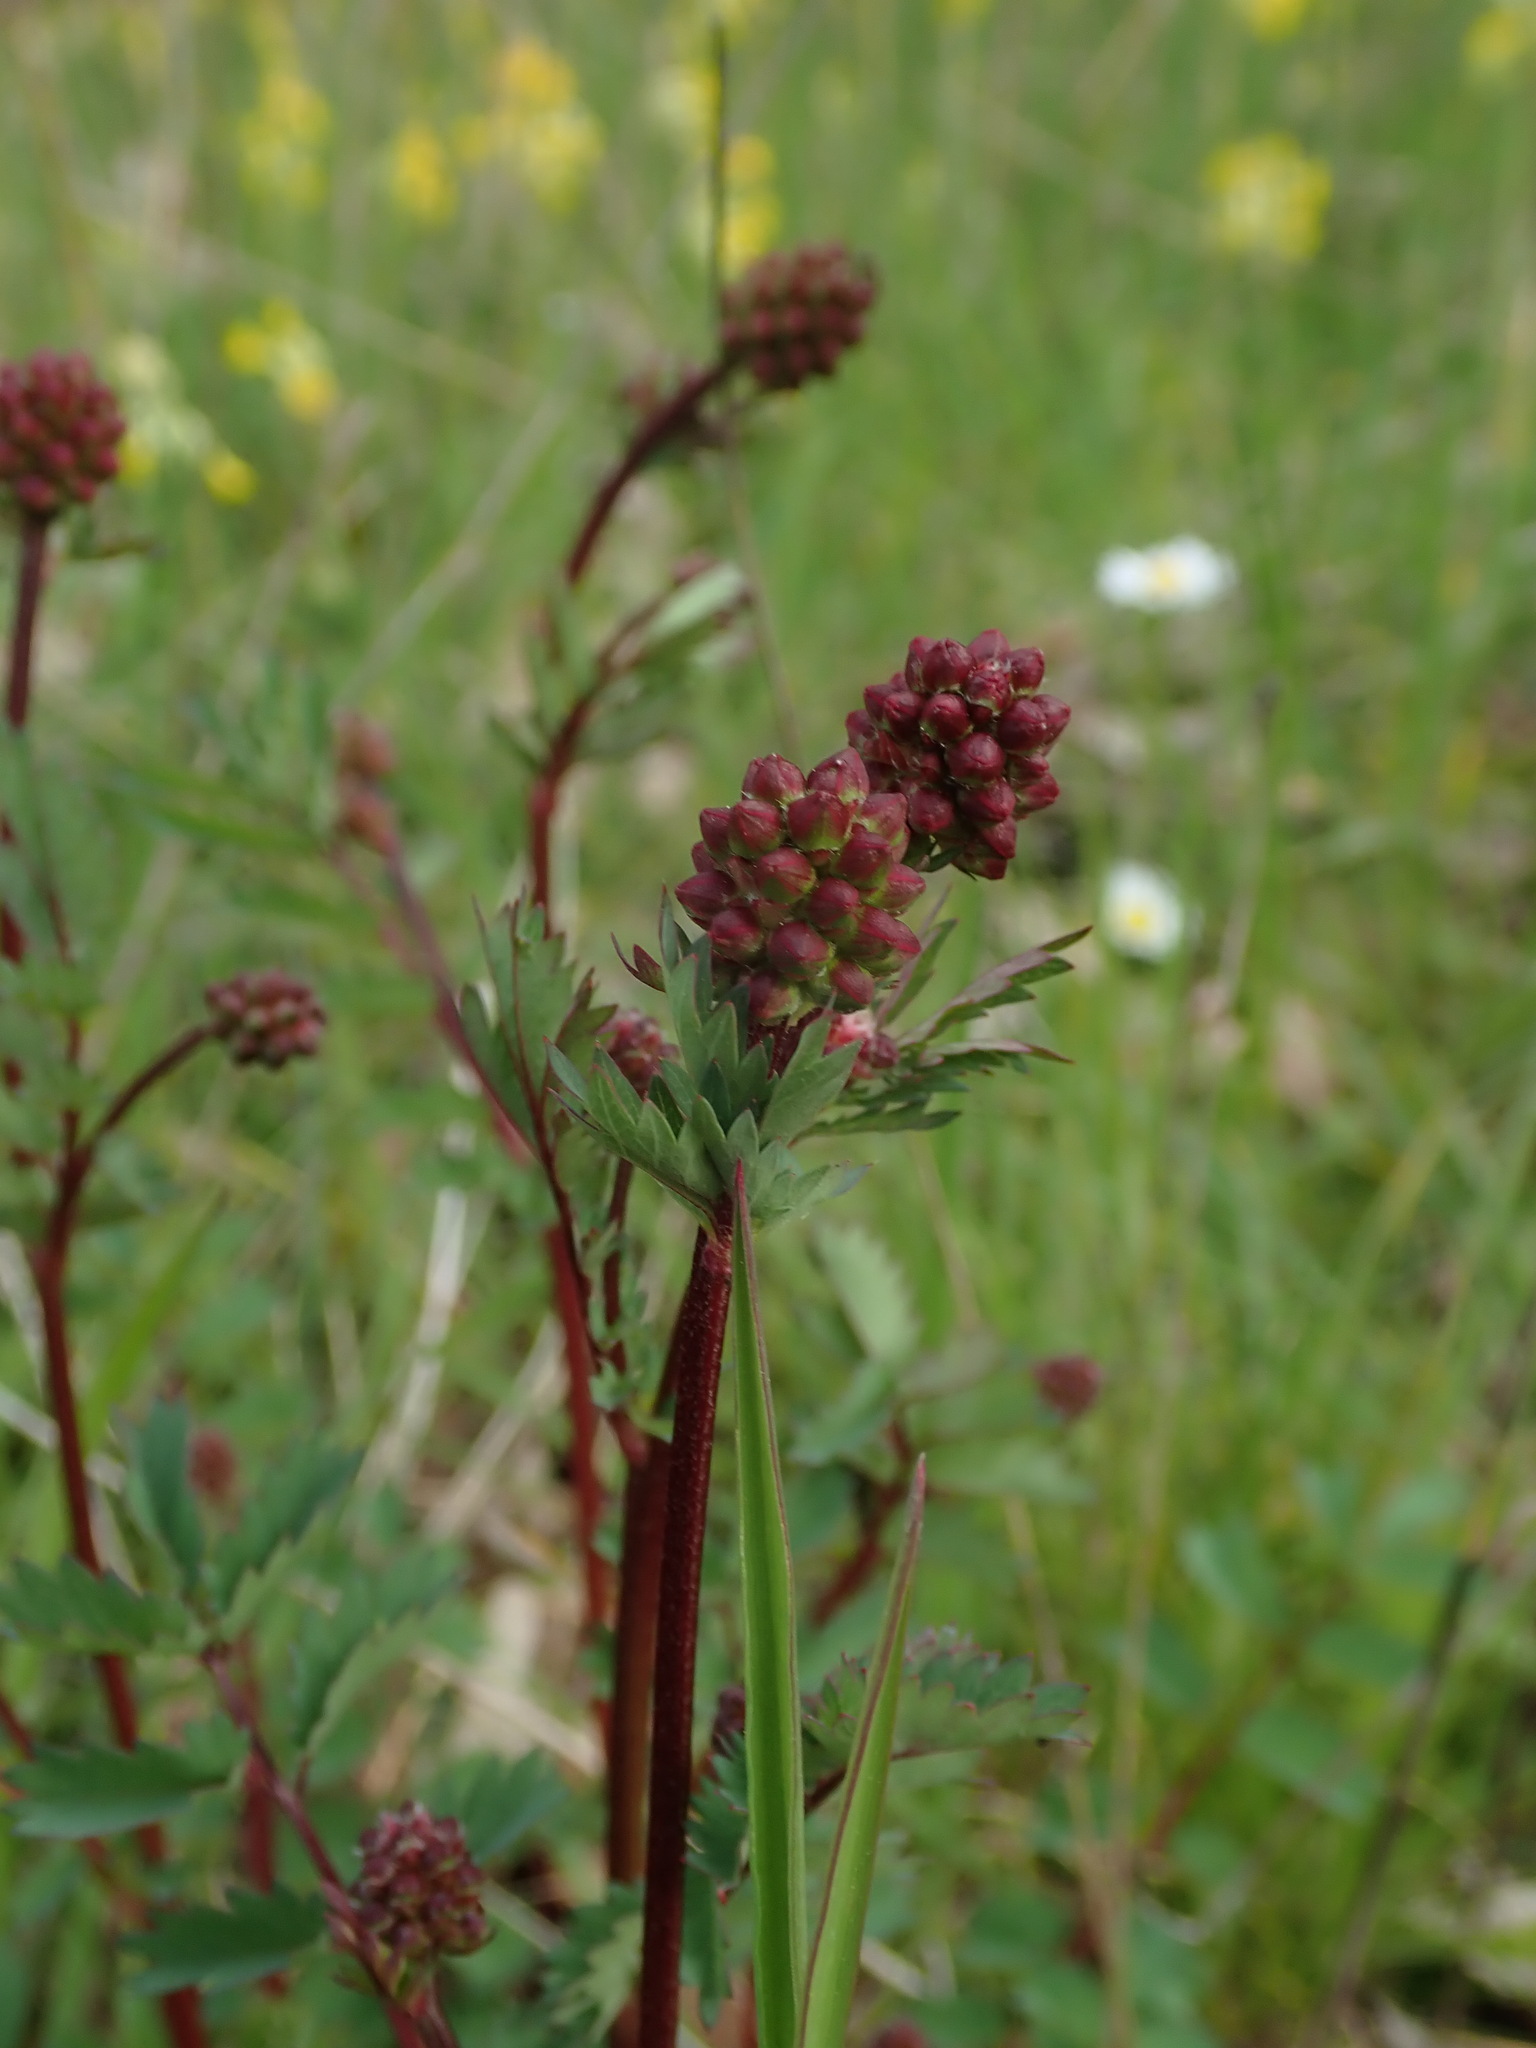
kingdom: Plantae
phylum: Tracheophyta
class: Magnoliopsida
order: Rosales
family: Rosaceae
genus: Poterium
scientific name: Poterium sanguisorba
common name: Salad burnet
